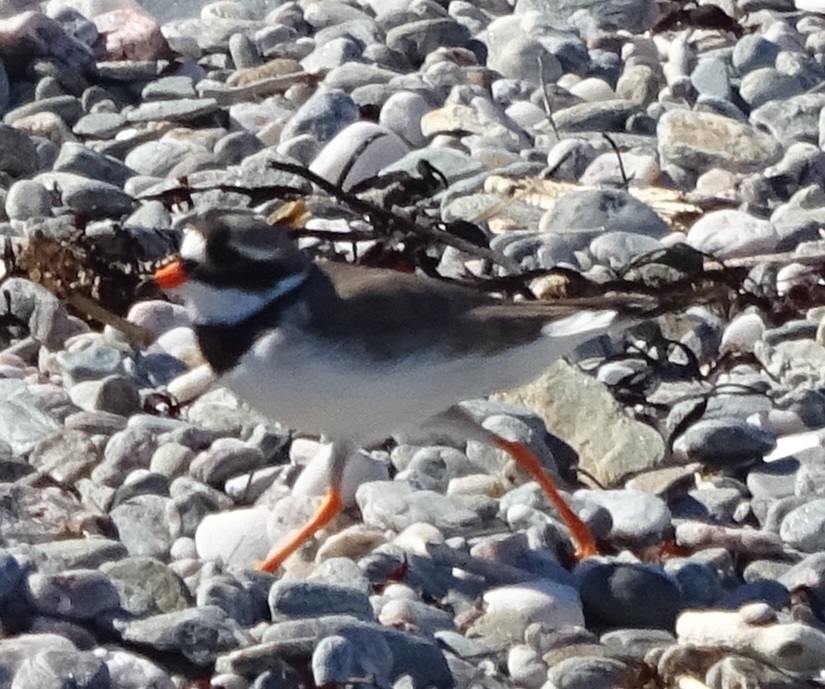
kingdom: Animalia
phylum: Chordata
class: Aves
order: Charadriiformes
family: Charadriidae
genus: Charadrius
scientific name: Charadrius hiaticula
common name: Common ringed plover
